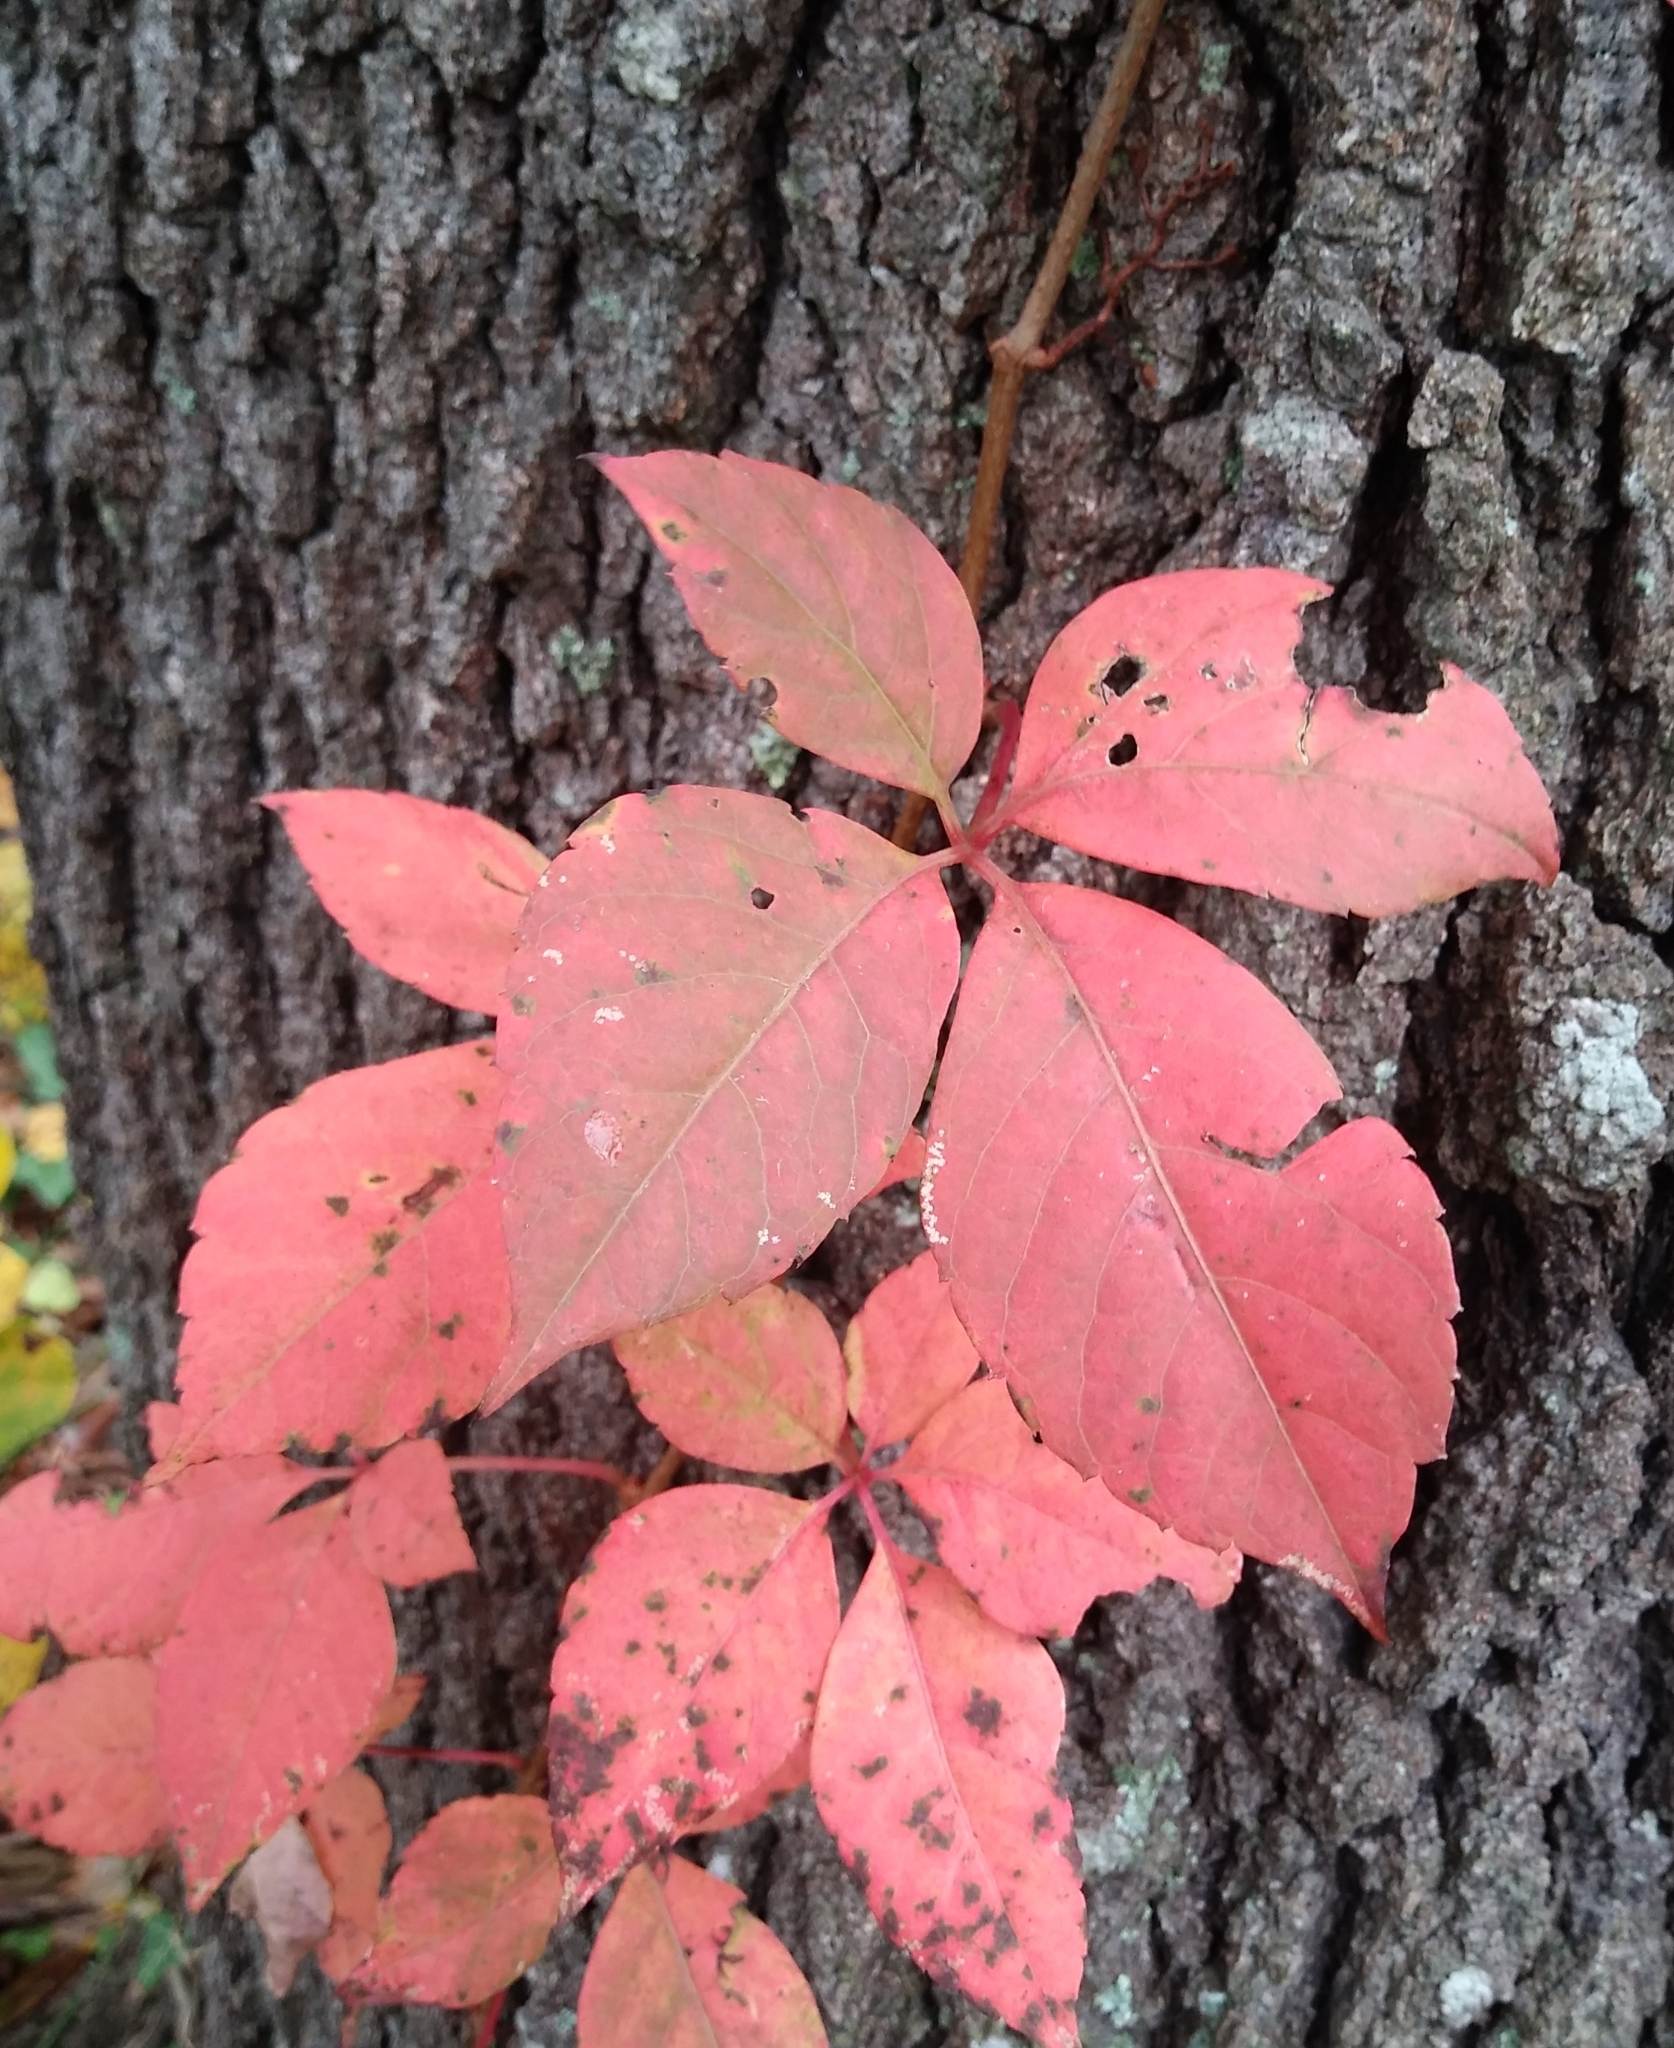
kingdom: Plantae
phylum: Tracheophyta
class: Magnoliopsida
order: Vitales
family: Vitaceae
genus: Parthenocissus
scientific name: Parthenocissus quinquefolia
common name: Virginia-creeper
